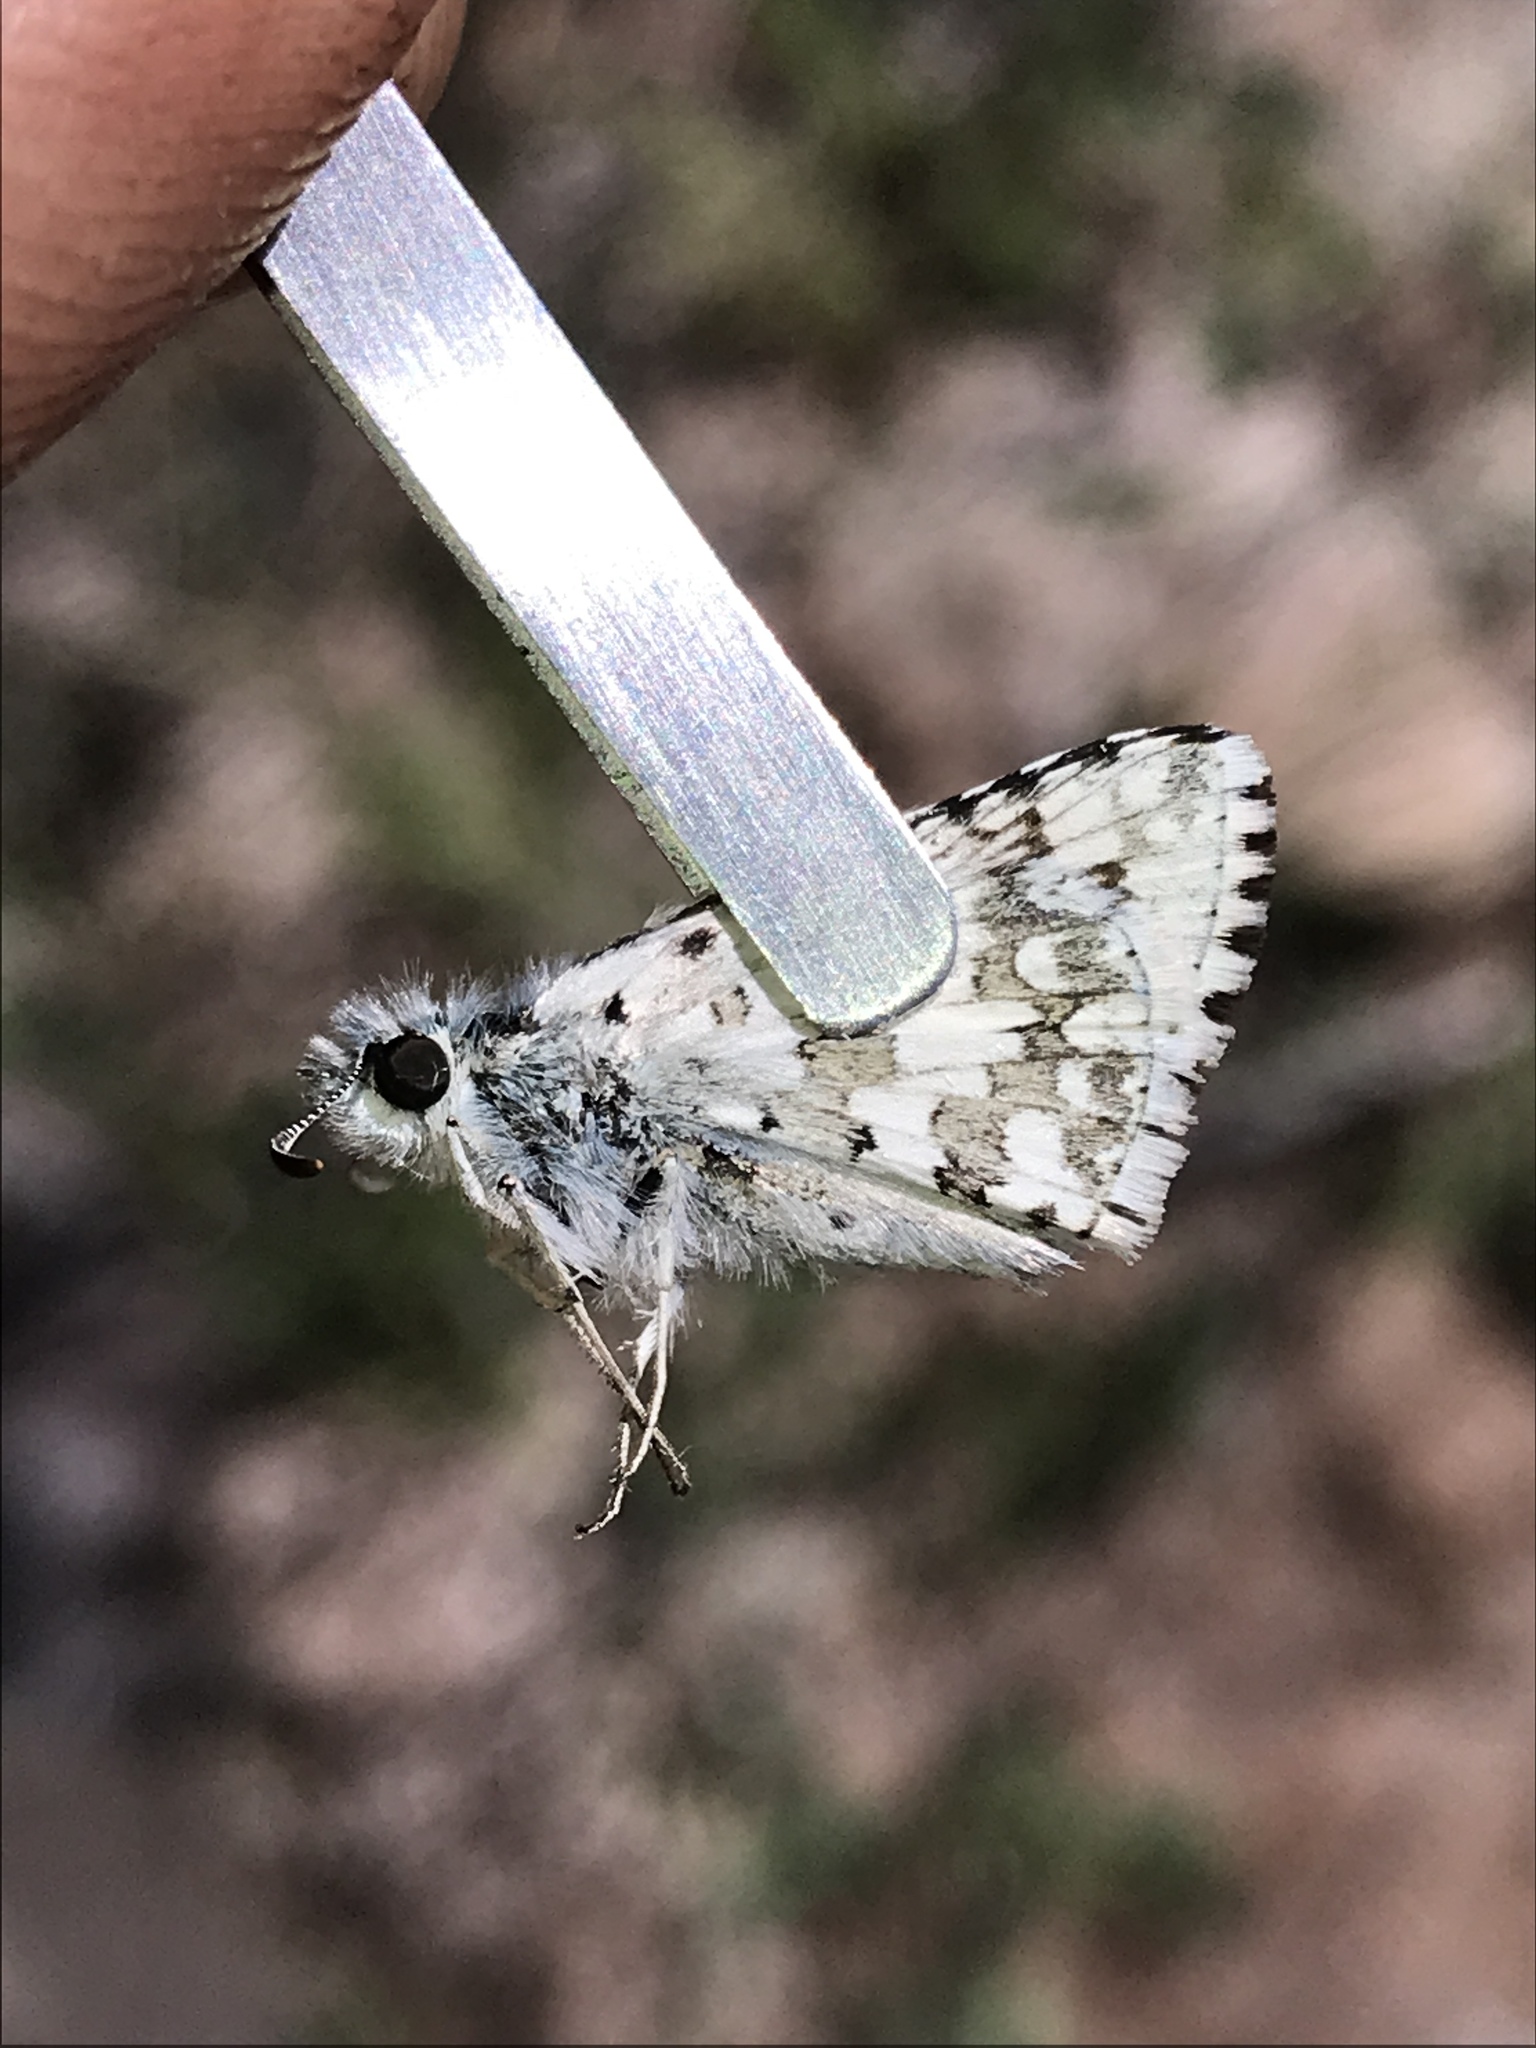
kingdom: Animalia
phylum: Arthropoda
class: Insecta
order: Lepidoptera
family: Hesperiidae
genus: Burnsius
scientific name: Burnsius communis
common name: Common checkered-skipper
